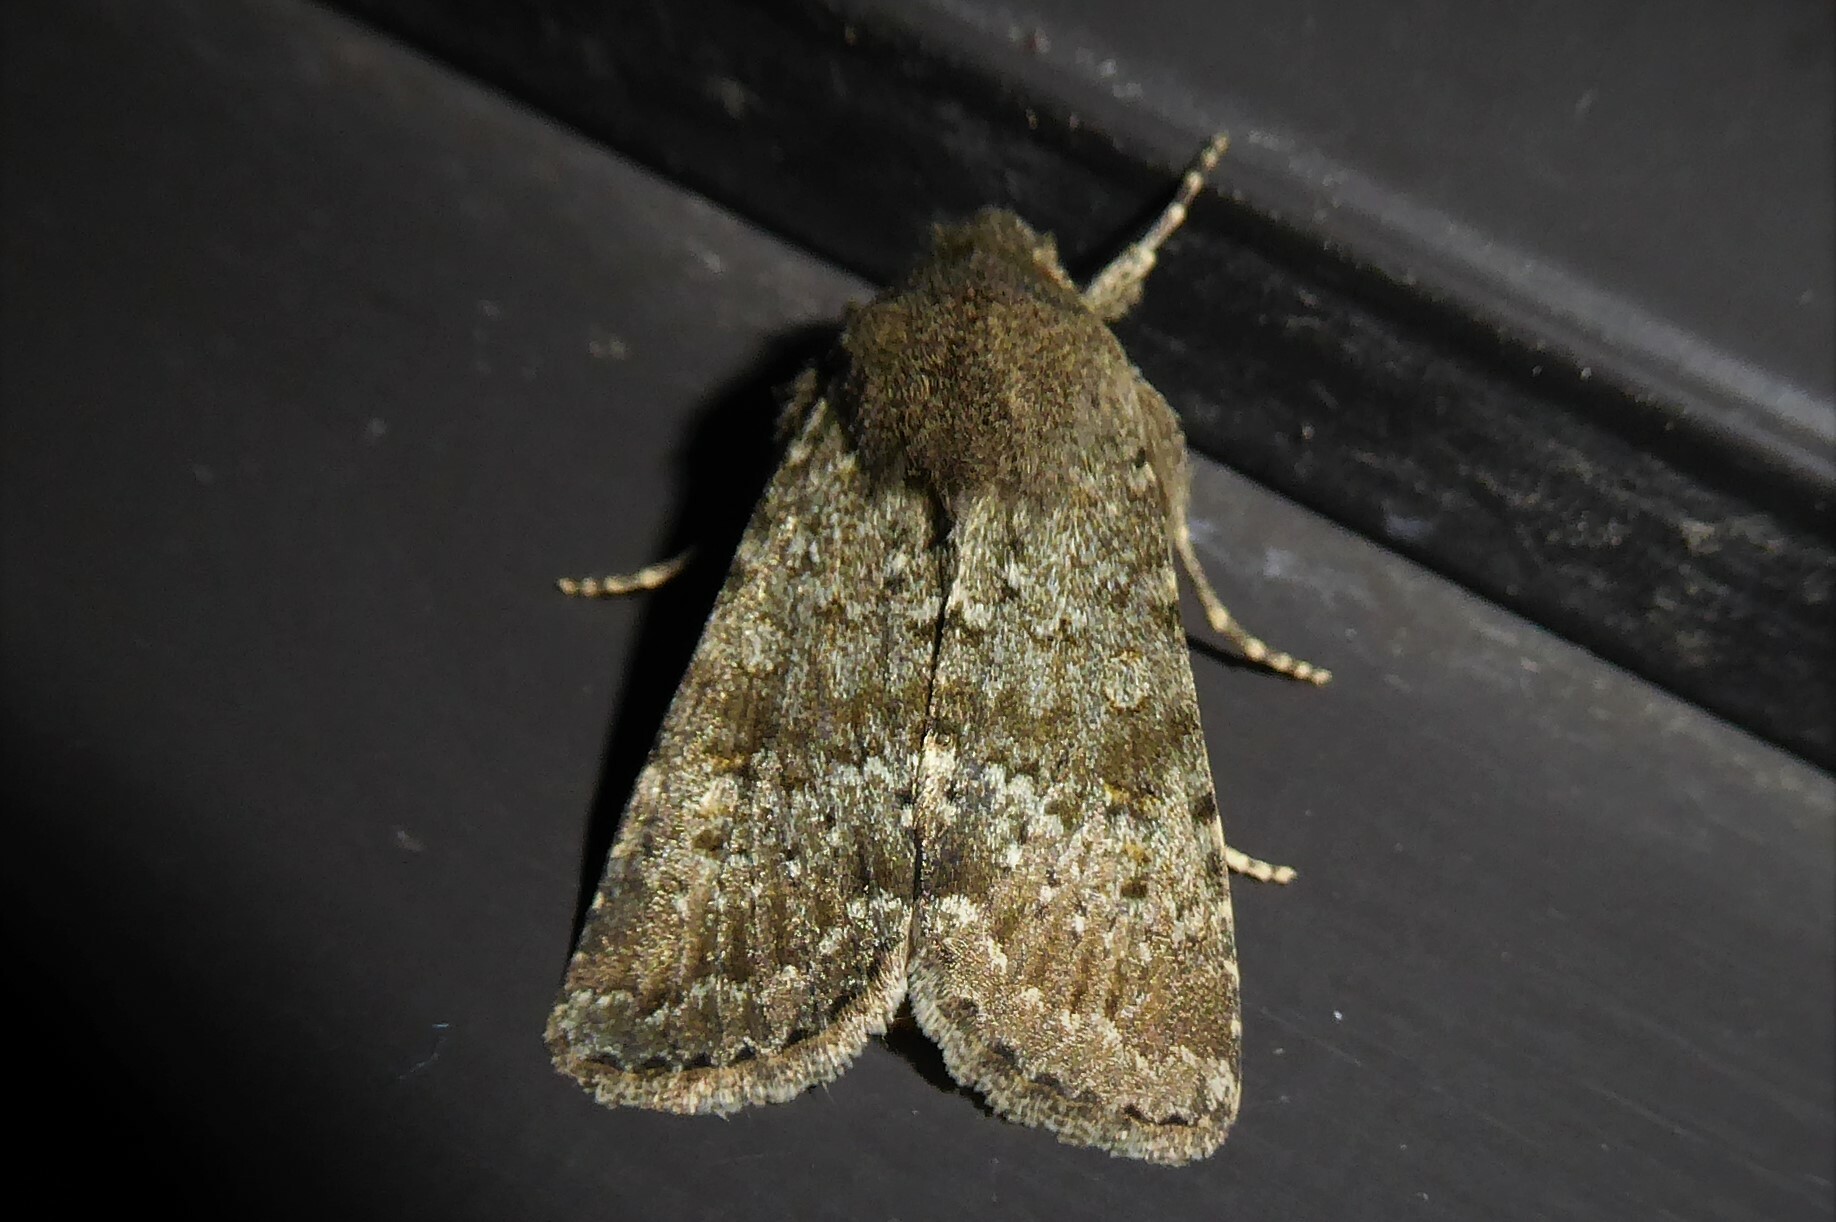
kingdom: Animalia
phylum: Arthropoda
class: Insecta
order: Lepidoptera
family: Noctuidae
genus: Ichneutica
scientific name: Ichneutica moderata
